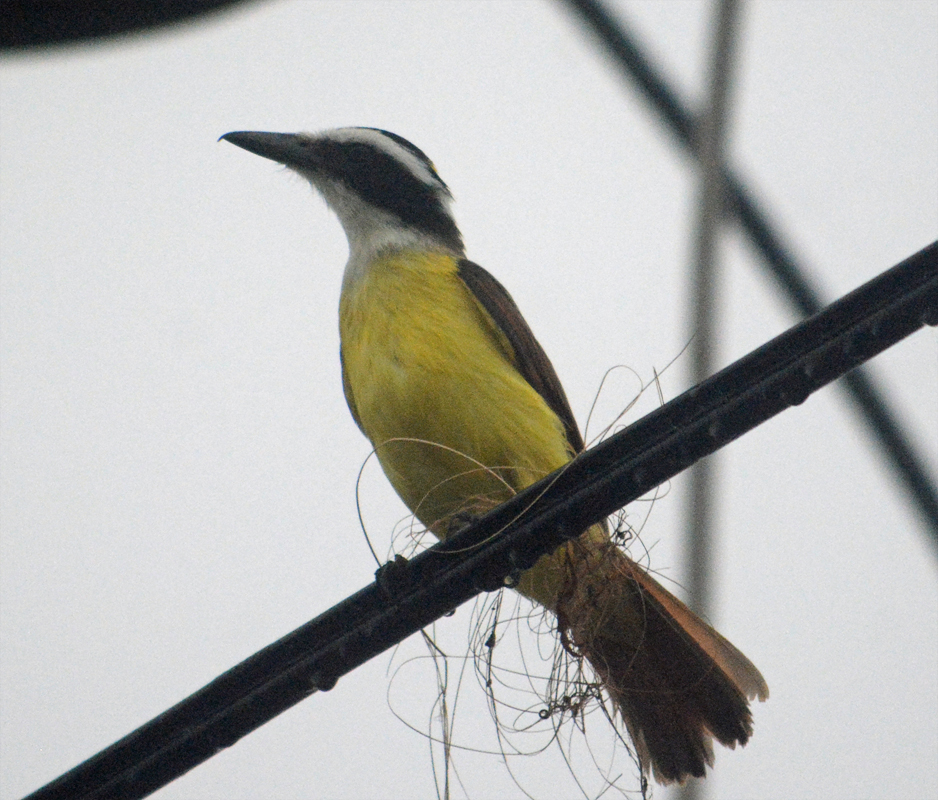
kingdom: Animalia
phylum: Chordata
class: Aves
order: Passeriformes
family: Tyrannidae
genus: Pitangus
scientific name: Pitangus sulphuratus
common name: Great kiskadee
